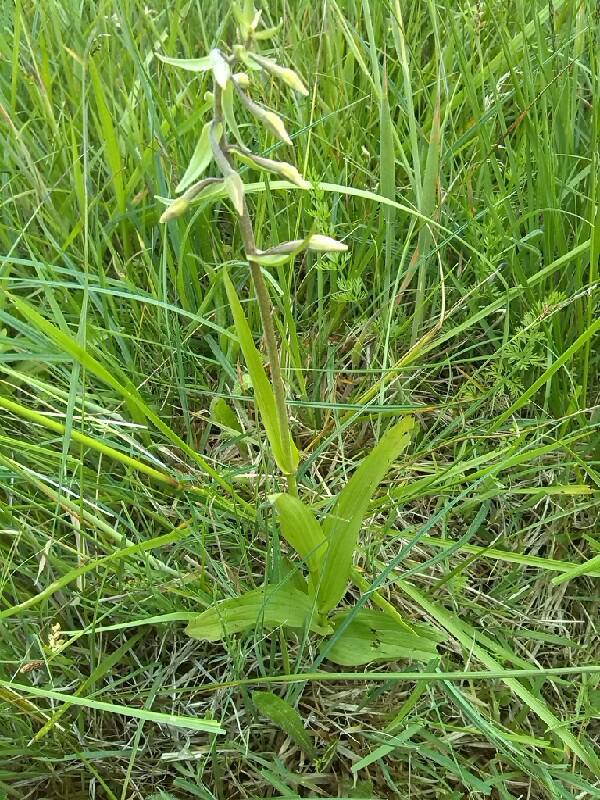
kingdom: Plantae
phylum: Tracheophyta
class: Liliopsida
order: Asparagales
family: Orchidaceae
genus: Epipactis
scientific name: Epipactis palustris
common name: Marsh helleborine
